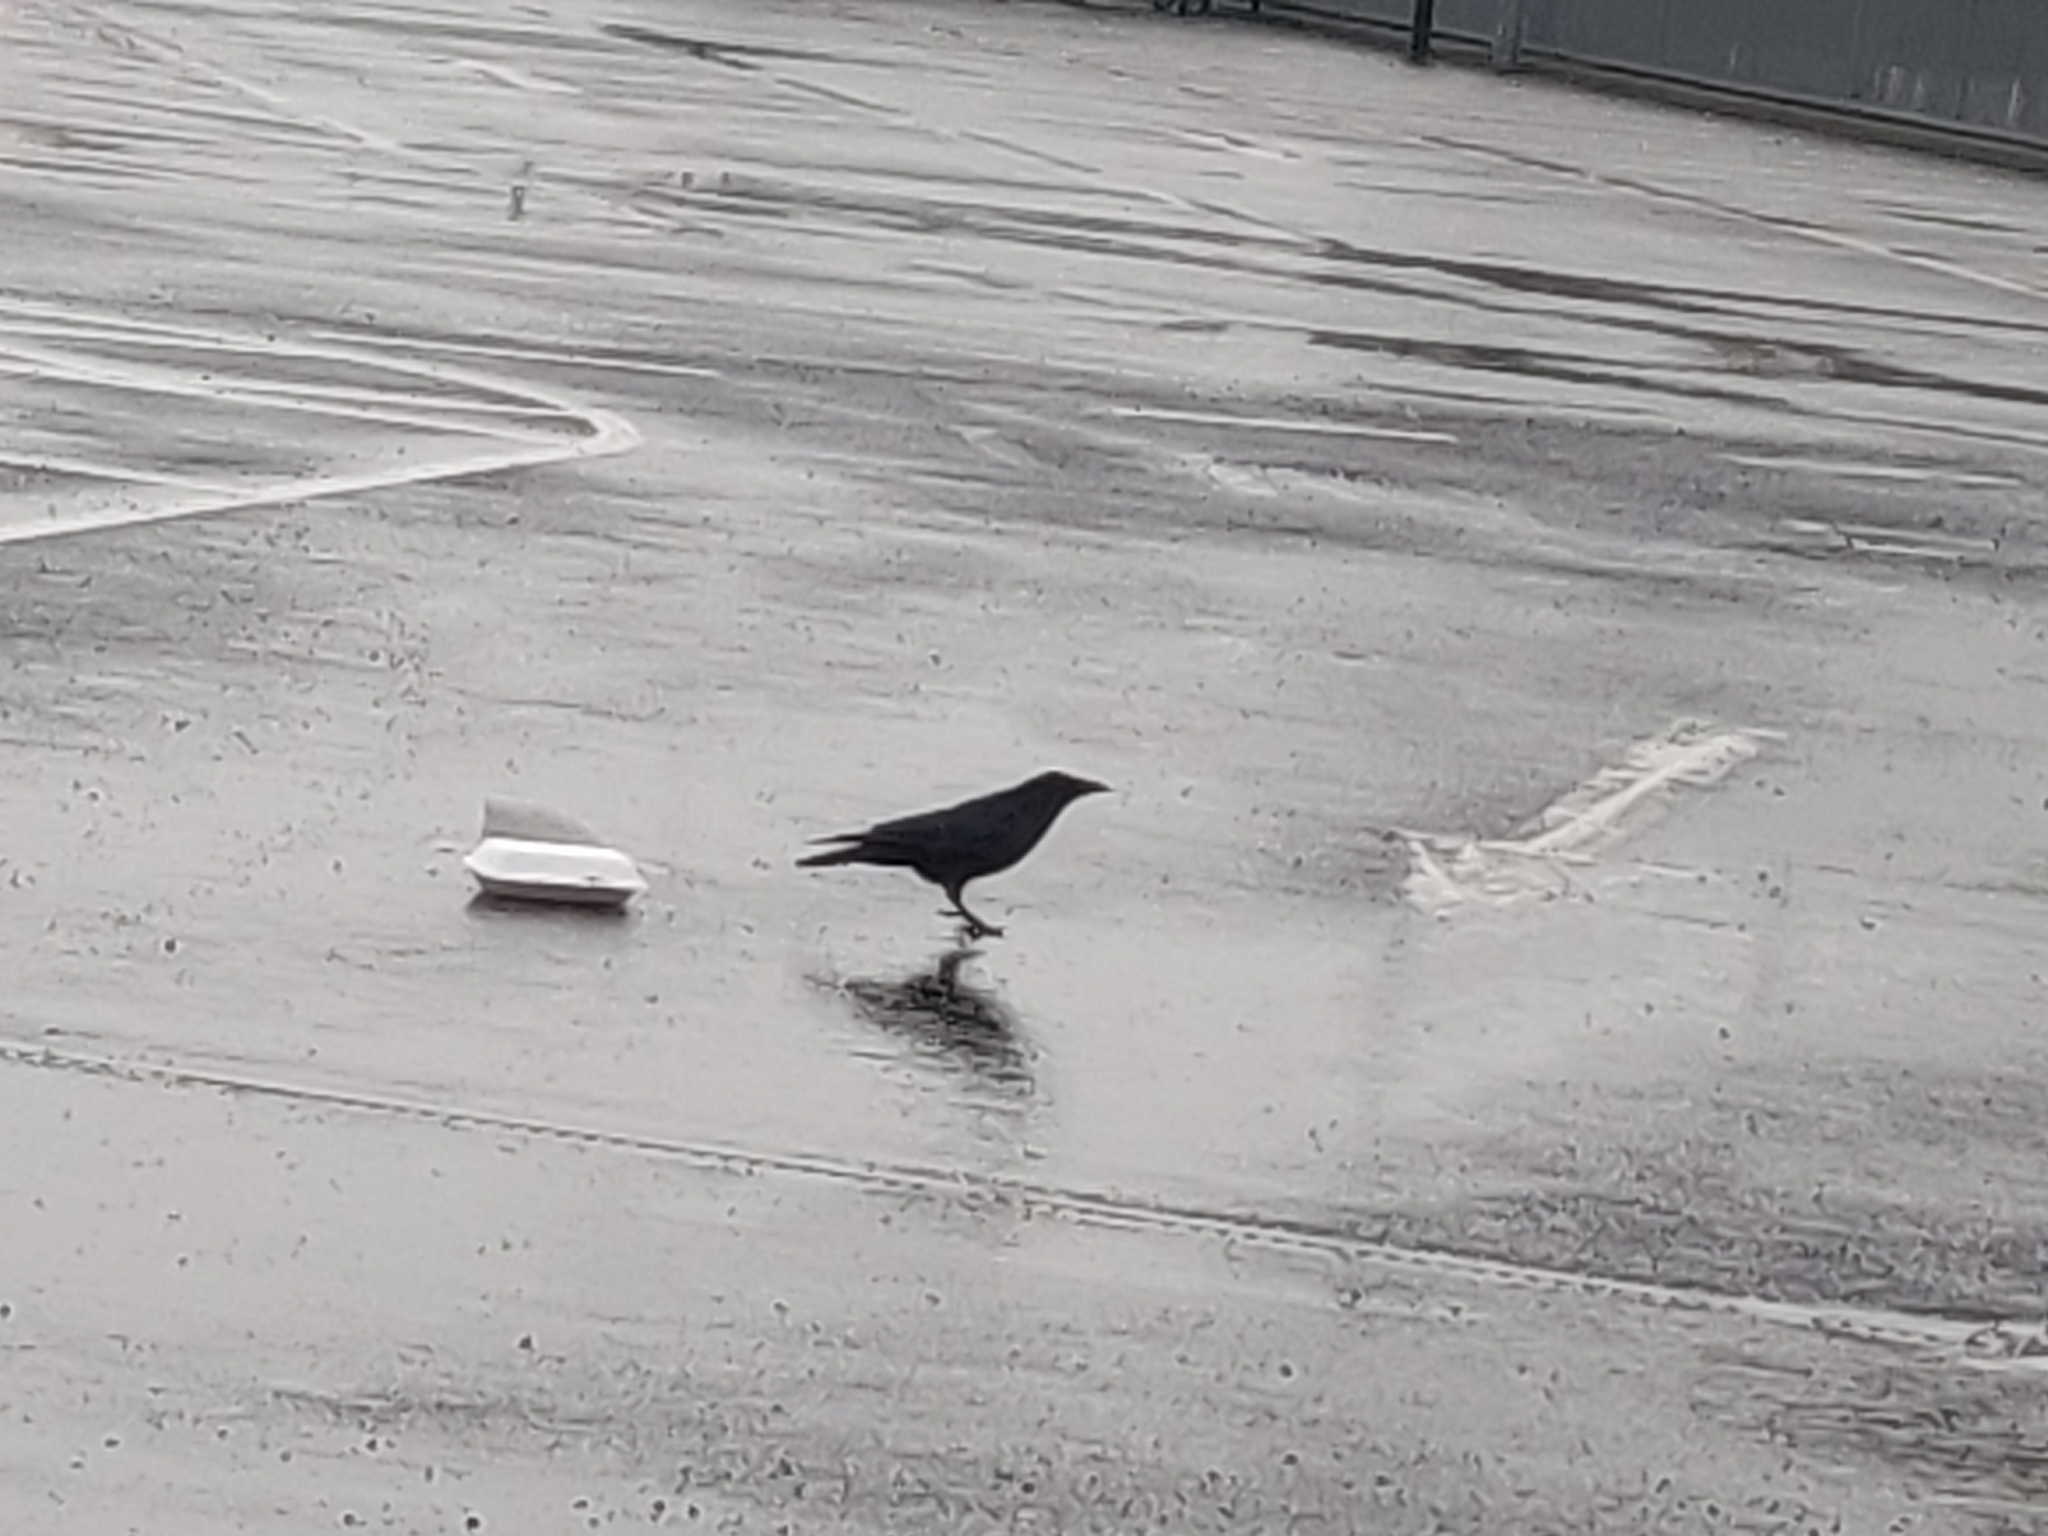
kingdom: Animalia
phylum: Chordata
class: Aves
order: Passeriformes
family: Corvidae
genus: Corvus
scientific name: Corvus corone
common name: Carrion crow
